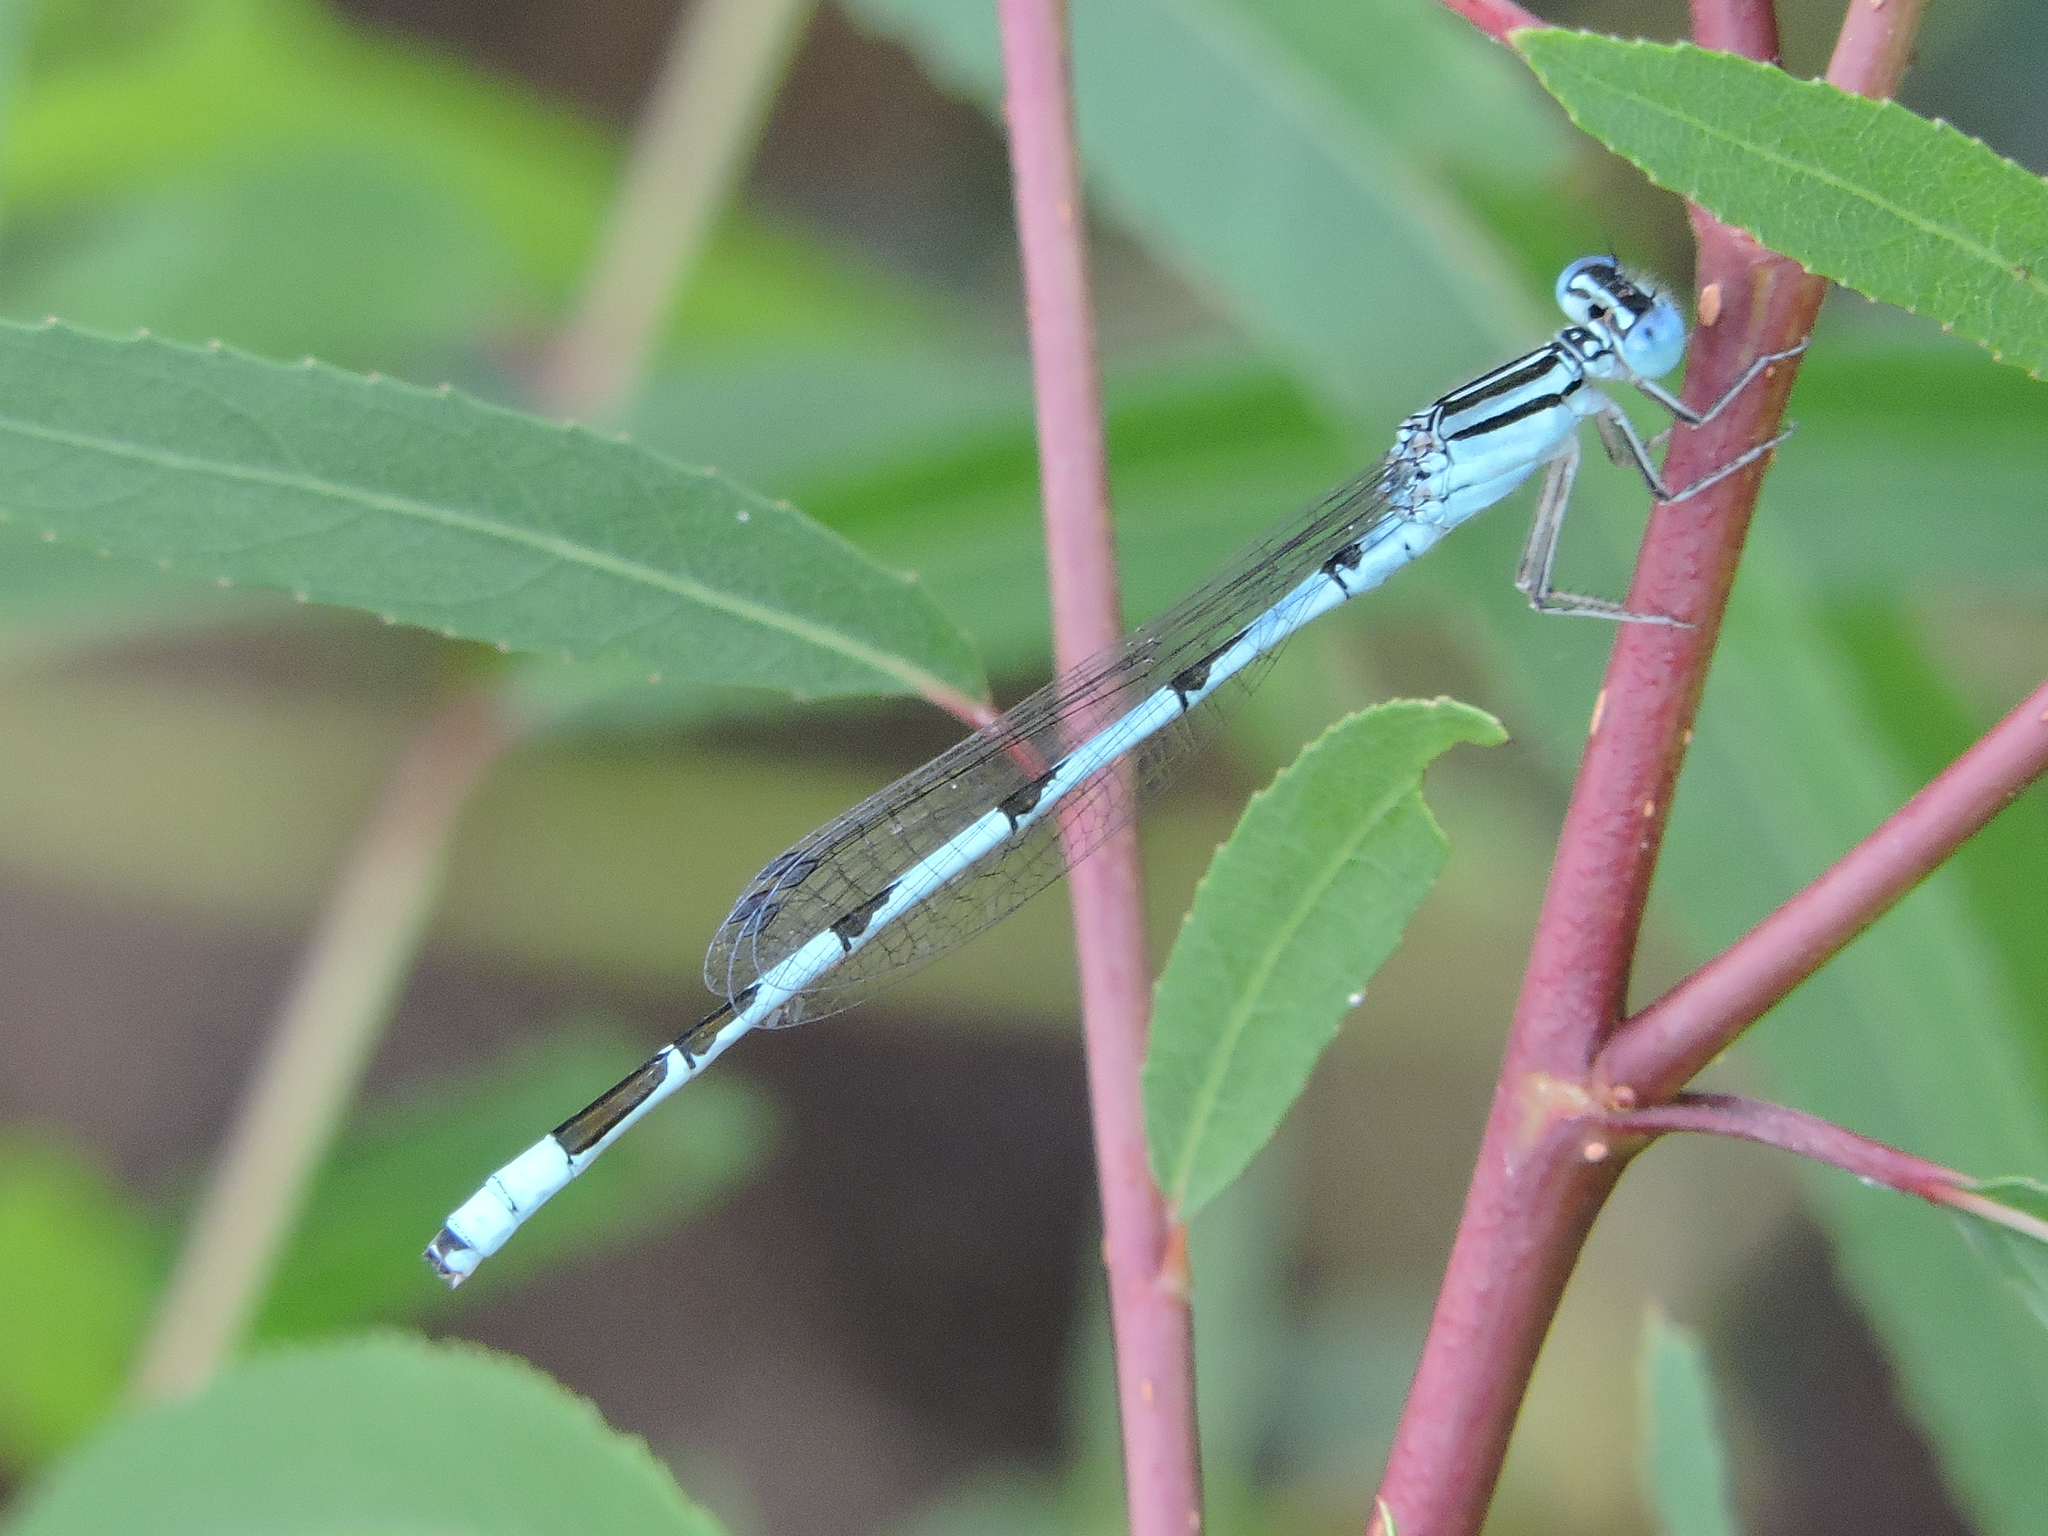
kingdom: Animalia
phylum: Arthropoda
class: Insecta
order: Odonata
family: Coenagrionidae
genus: Enallagma
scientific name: Enallagma durum
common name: Big bluet
